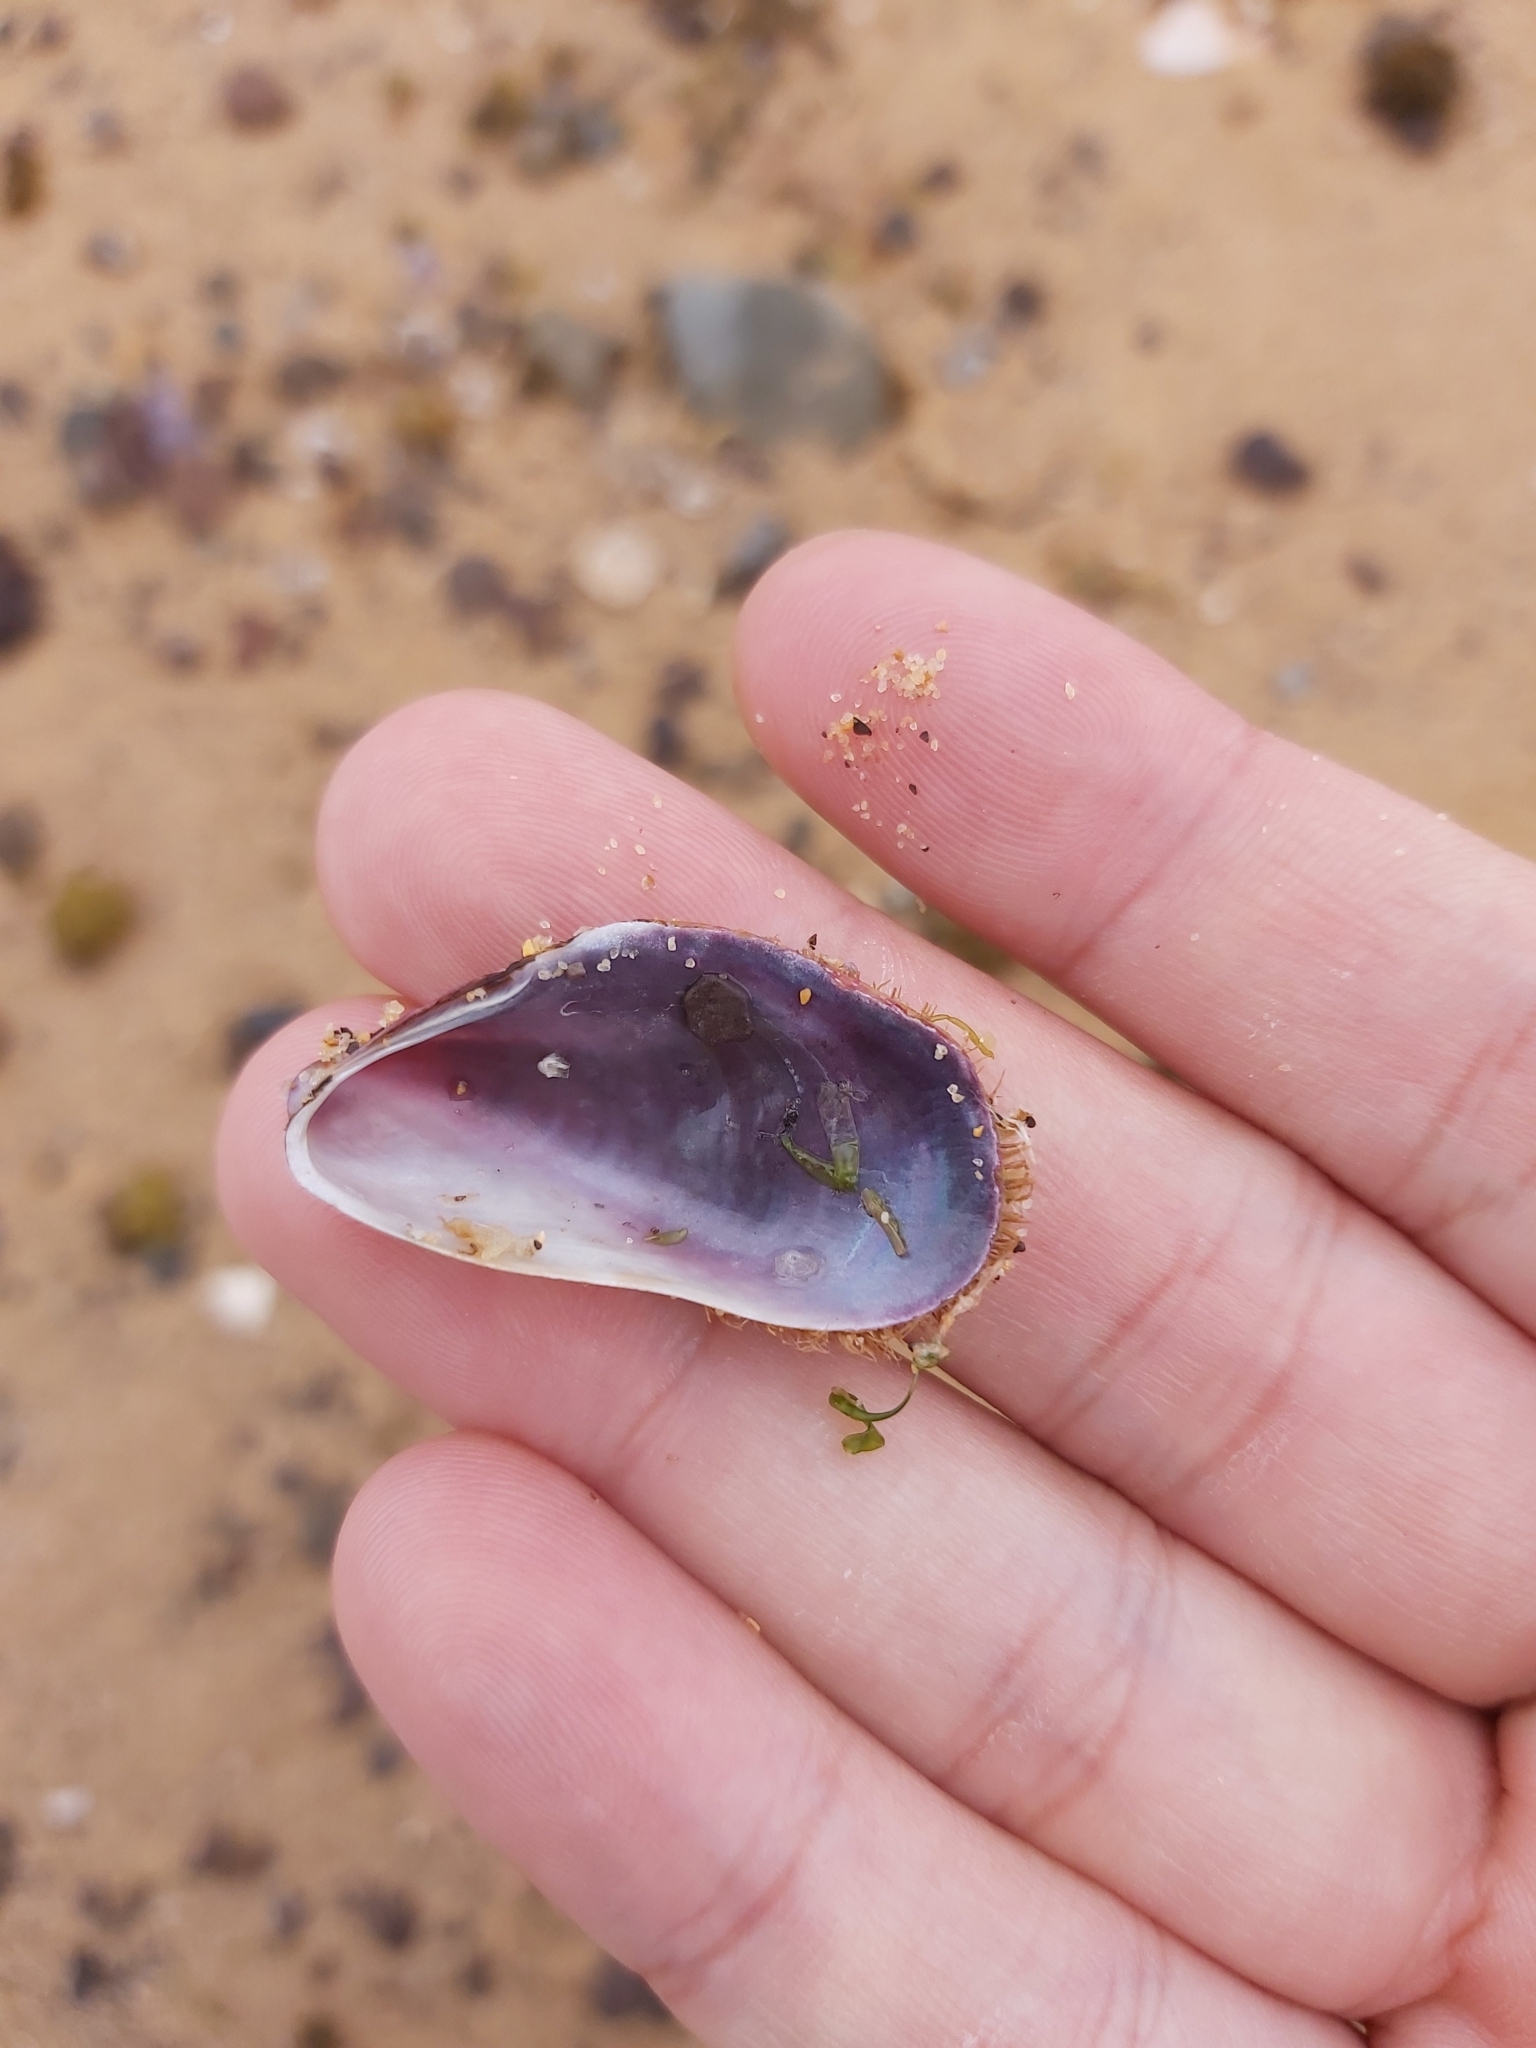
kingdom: Animalia
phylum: Mollusca
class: Bivalvia
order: Mytilida
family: Mytilidae
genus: Trichomya
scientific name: Trichomya hirsuta
